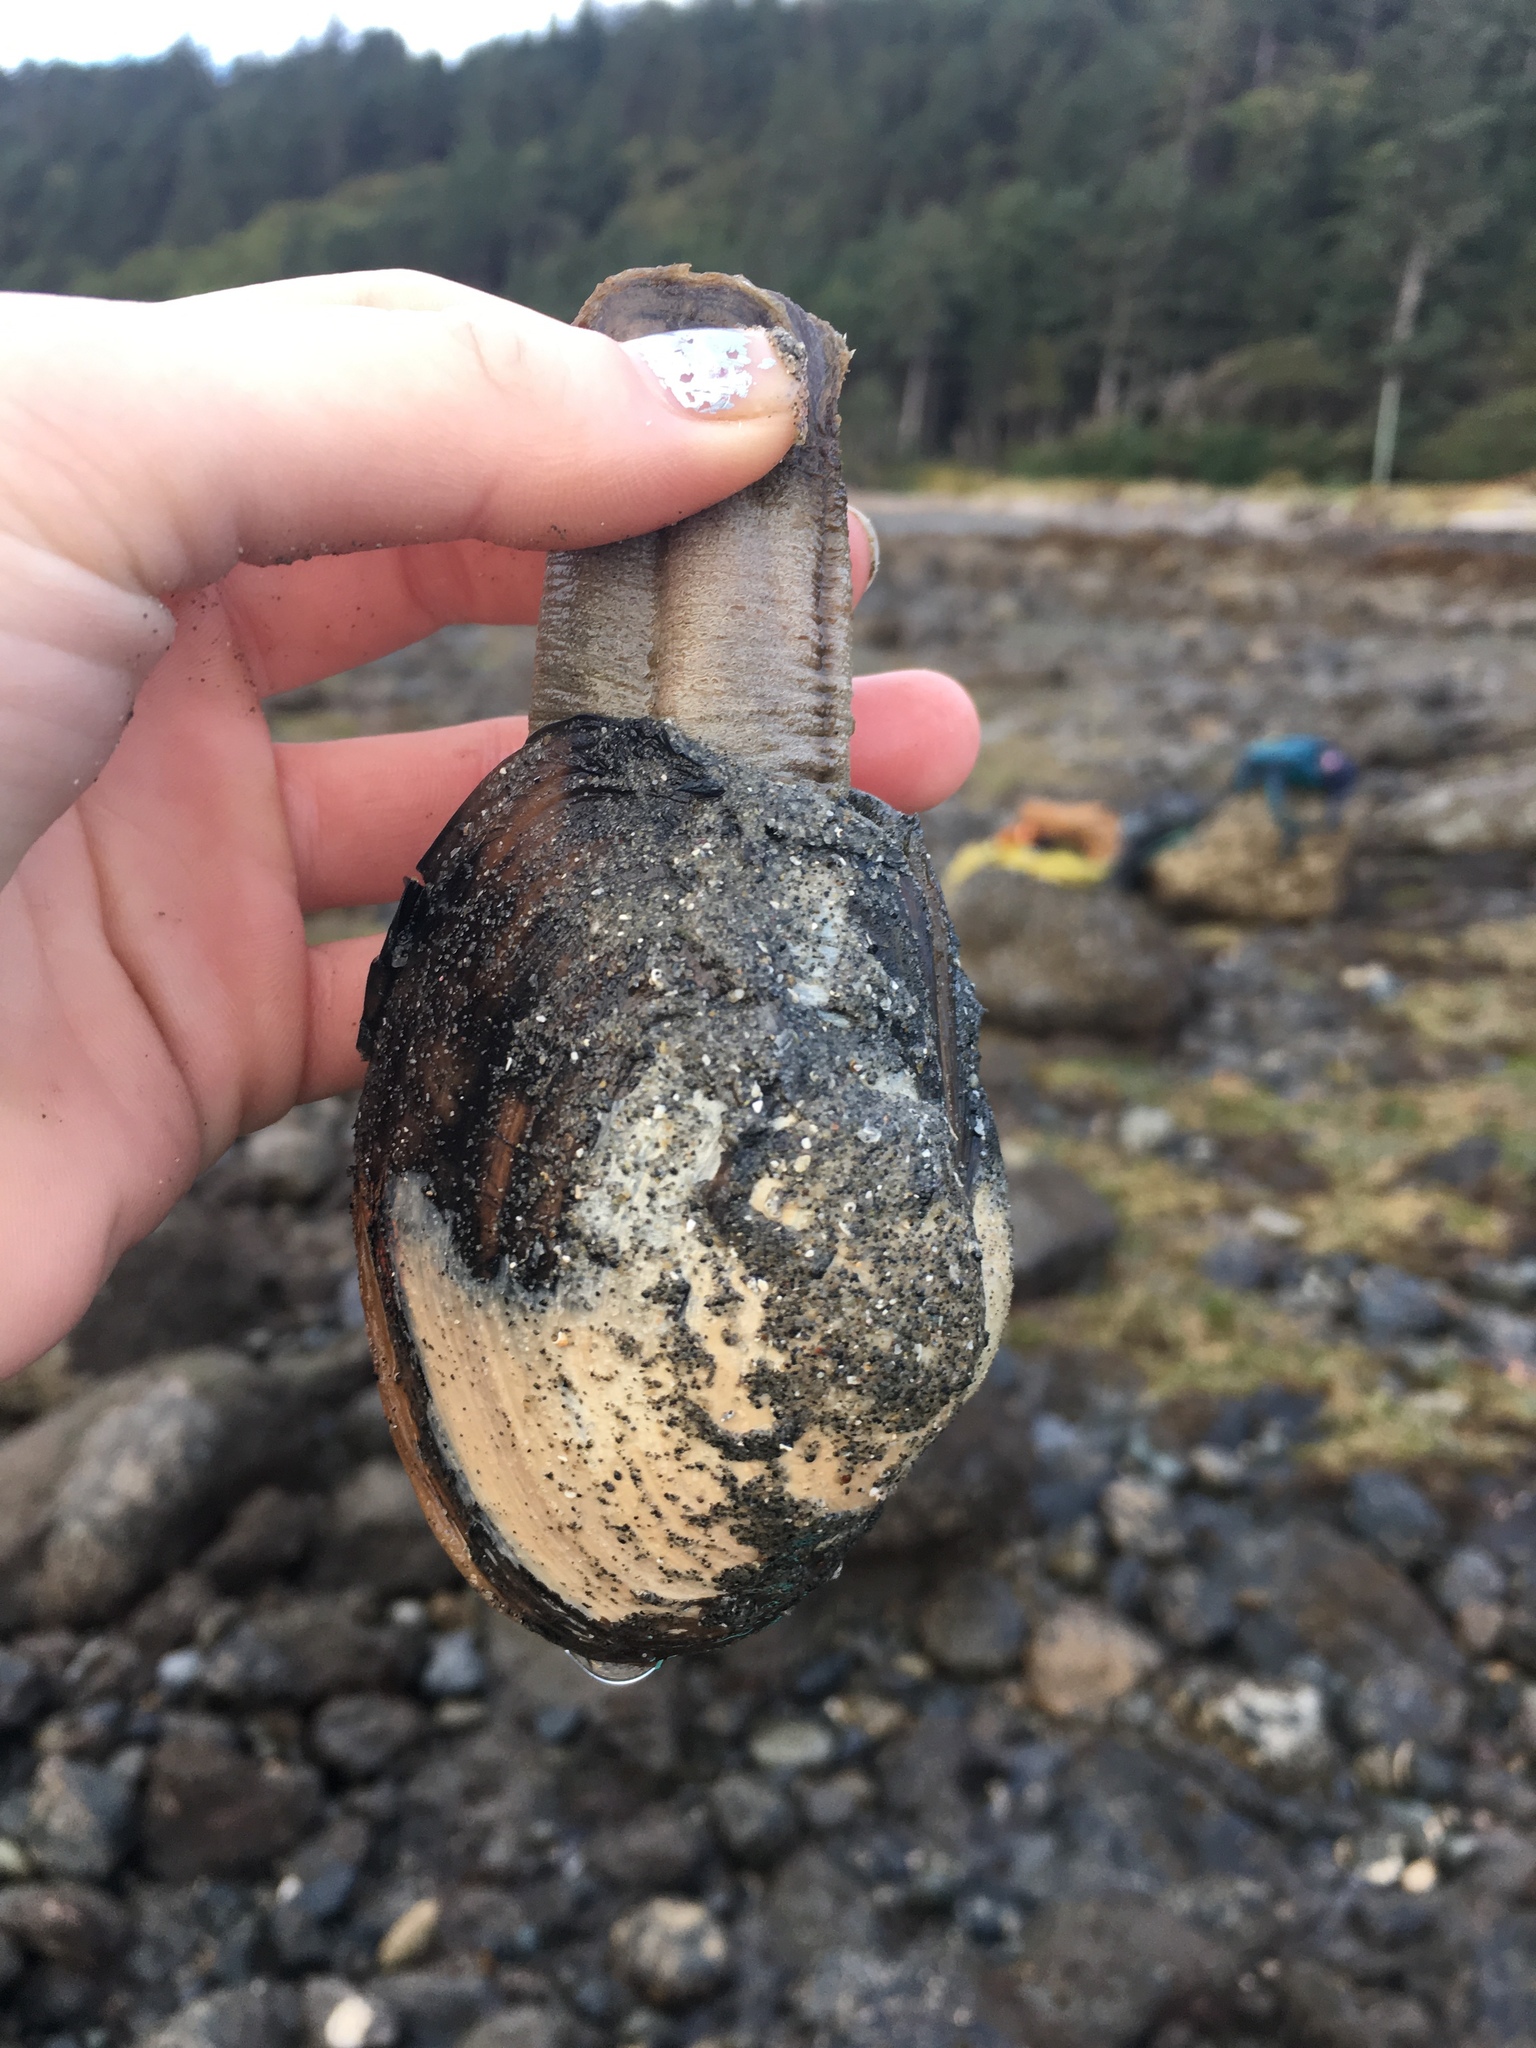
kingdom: Animalia
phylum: Mollusca
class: Bivalvia
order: Venerida
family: Mactridae
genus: Tresus
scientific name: Tresus capax
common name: Fat gaper
